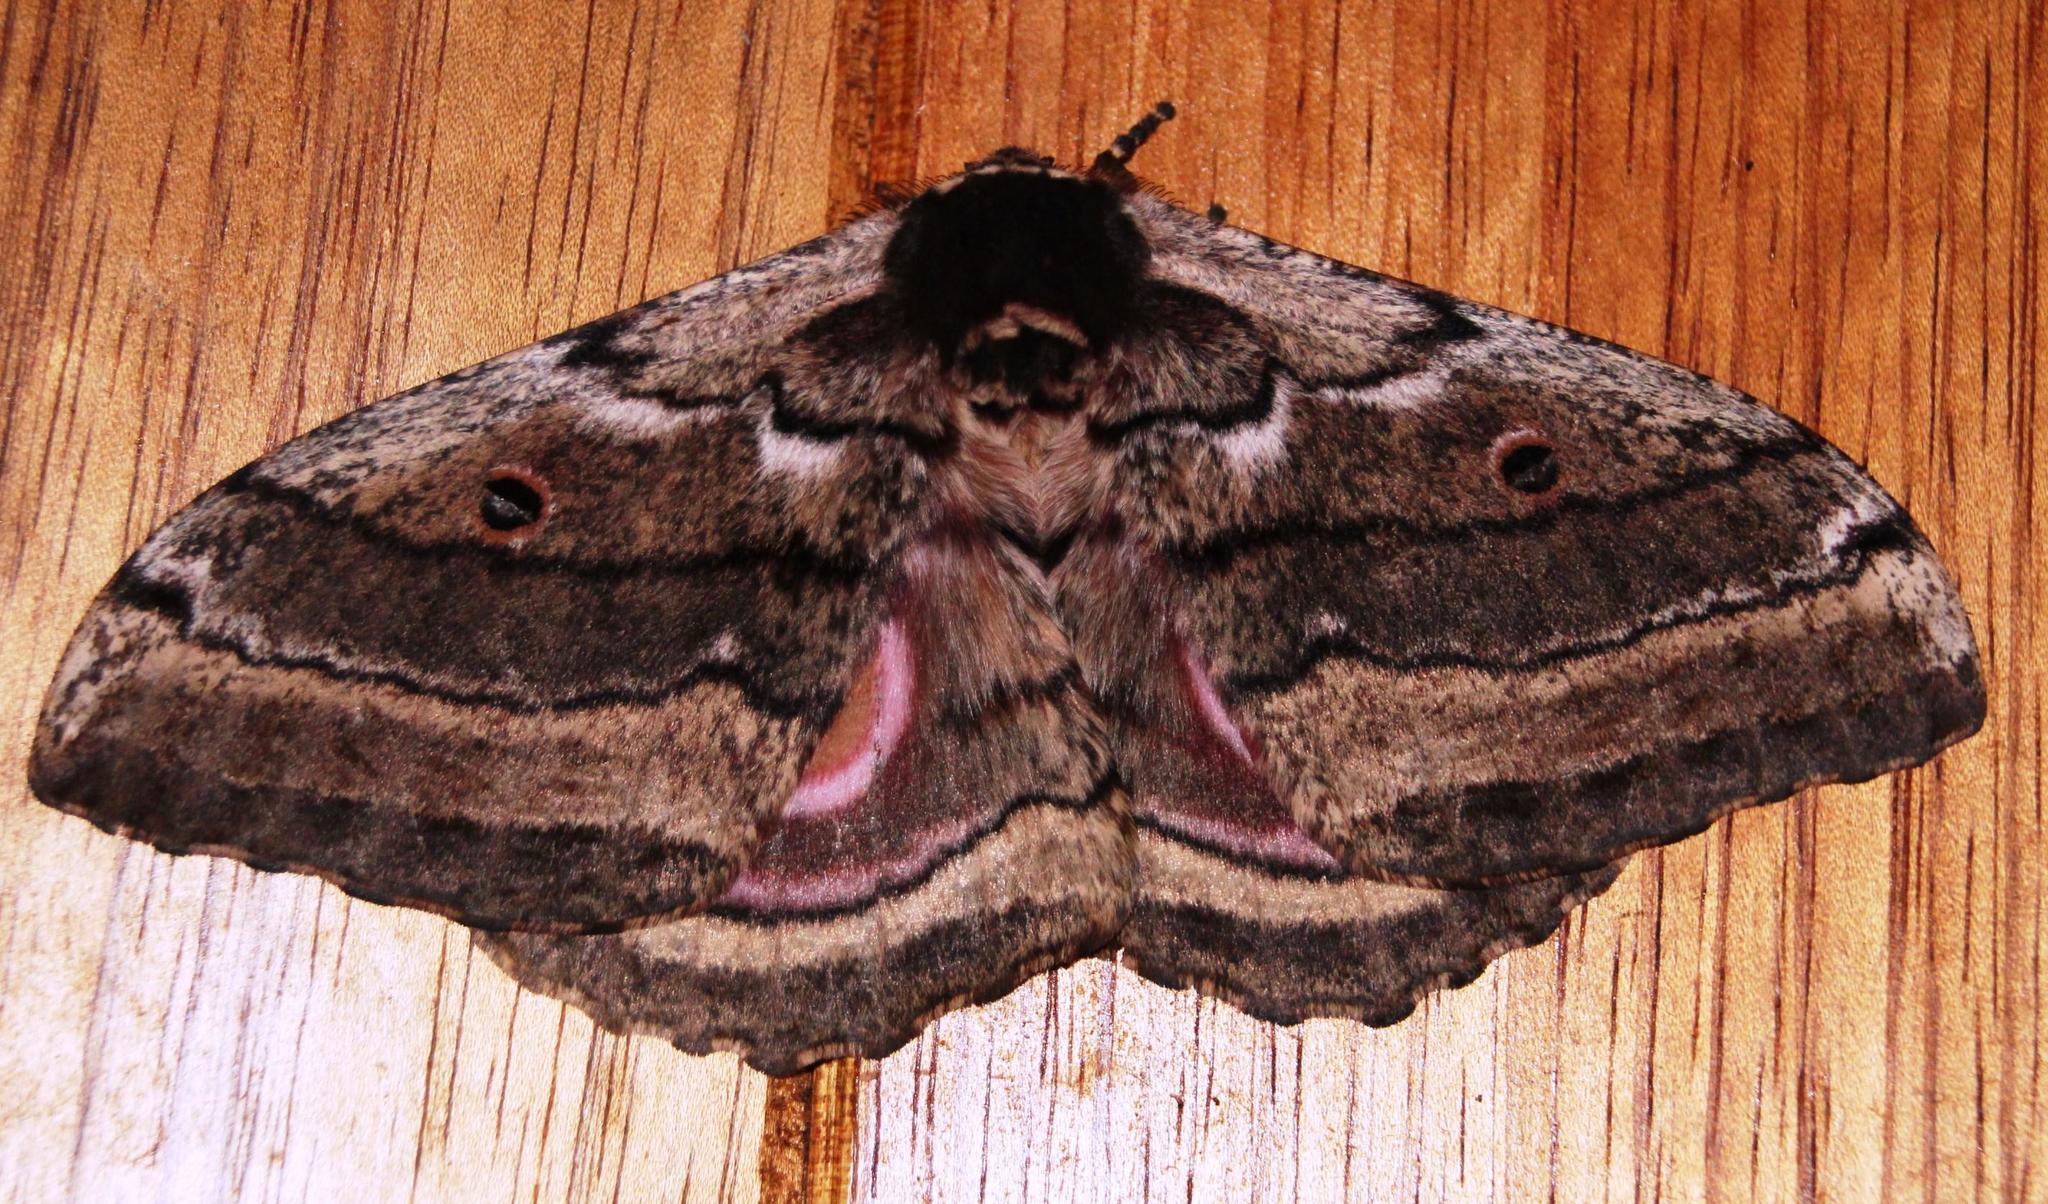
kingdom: Animalia
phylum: Arthropoda
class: Insecta
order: Lepidoptera
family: Saturniidae
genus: Gynanisa
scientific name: Gynanisa maja
